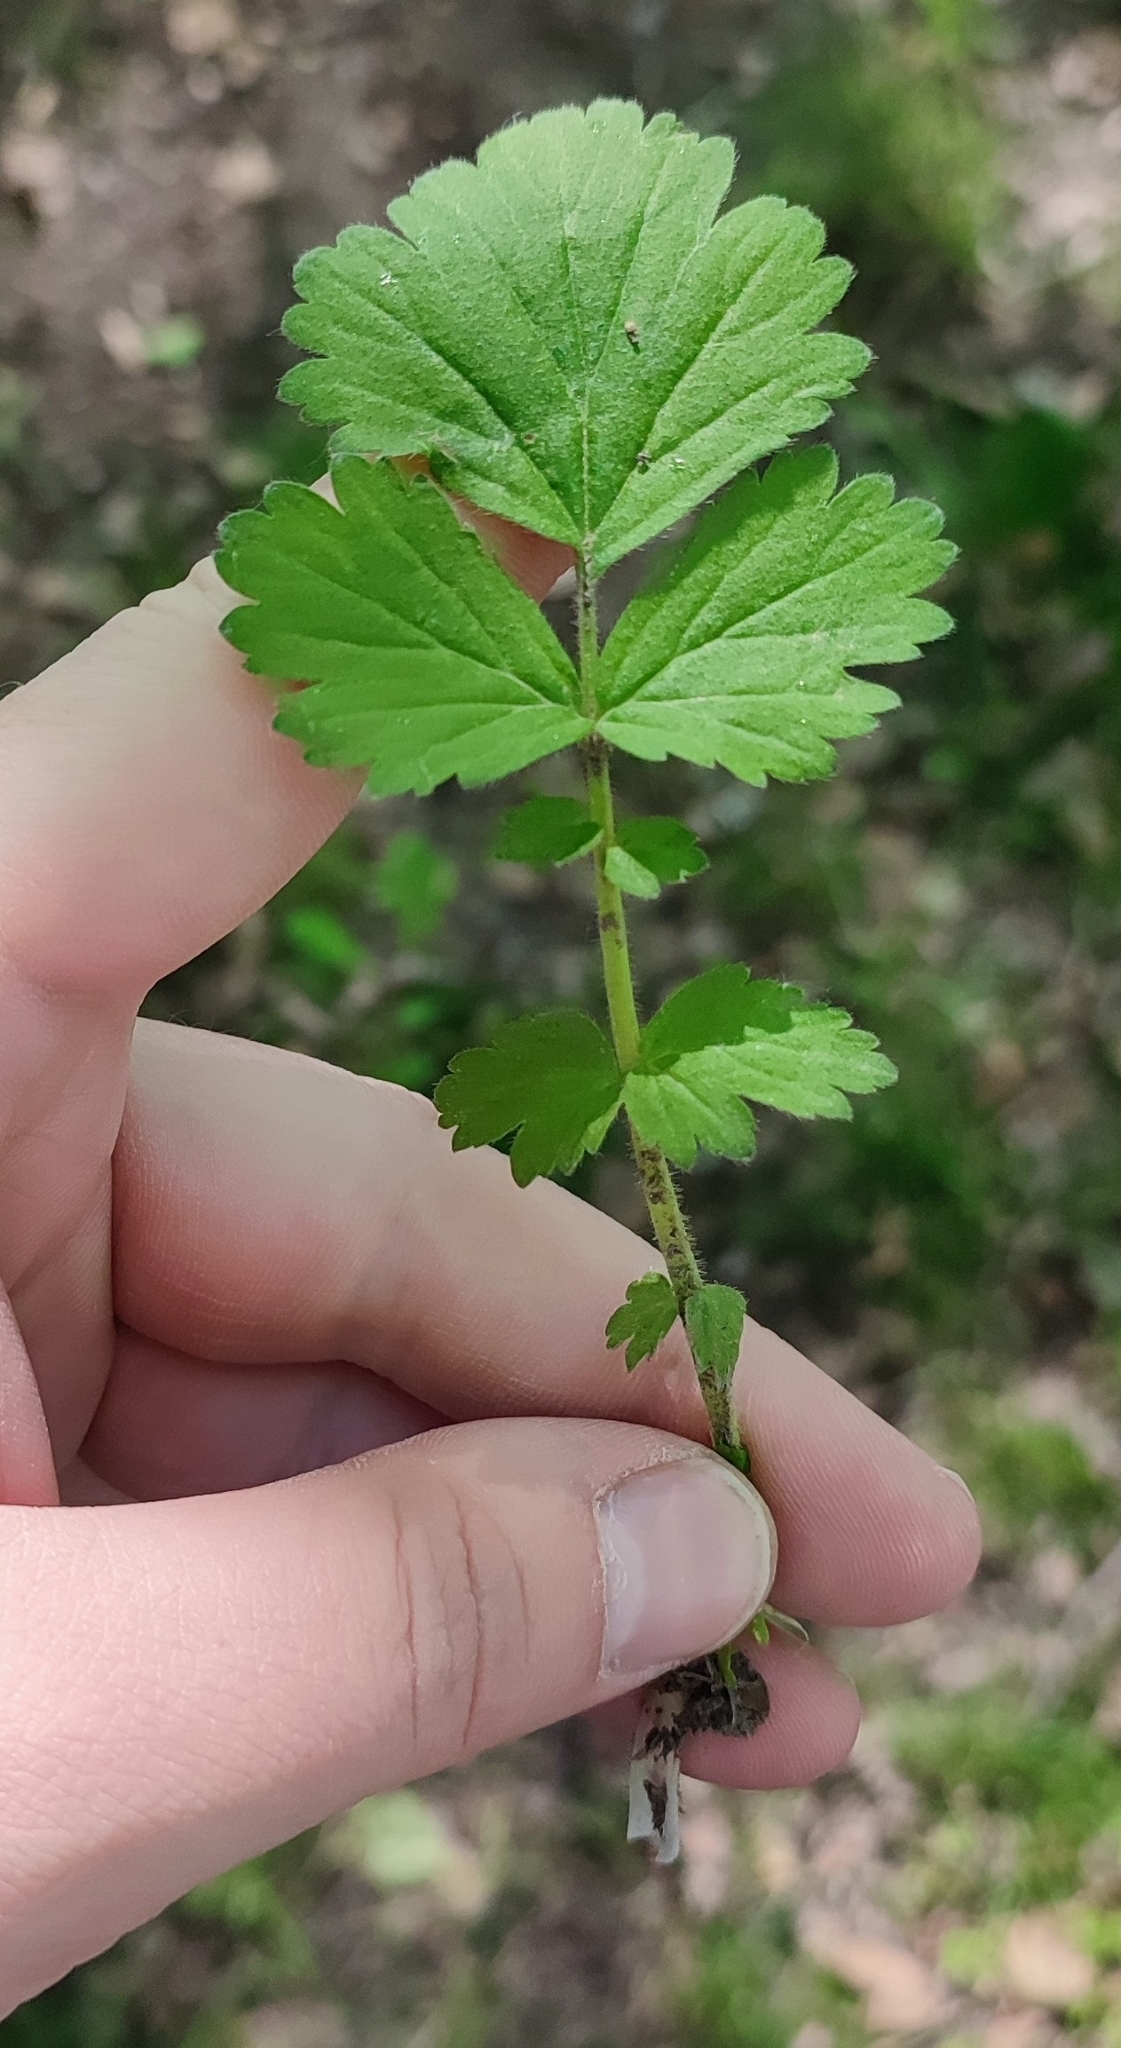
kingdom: Plantae
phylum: Tracheophyta
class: Magnoliopsida
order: Rosales
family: Rosaceae
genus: Geum
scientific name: Geum aleppicum
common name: Yellow avens
